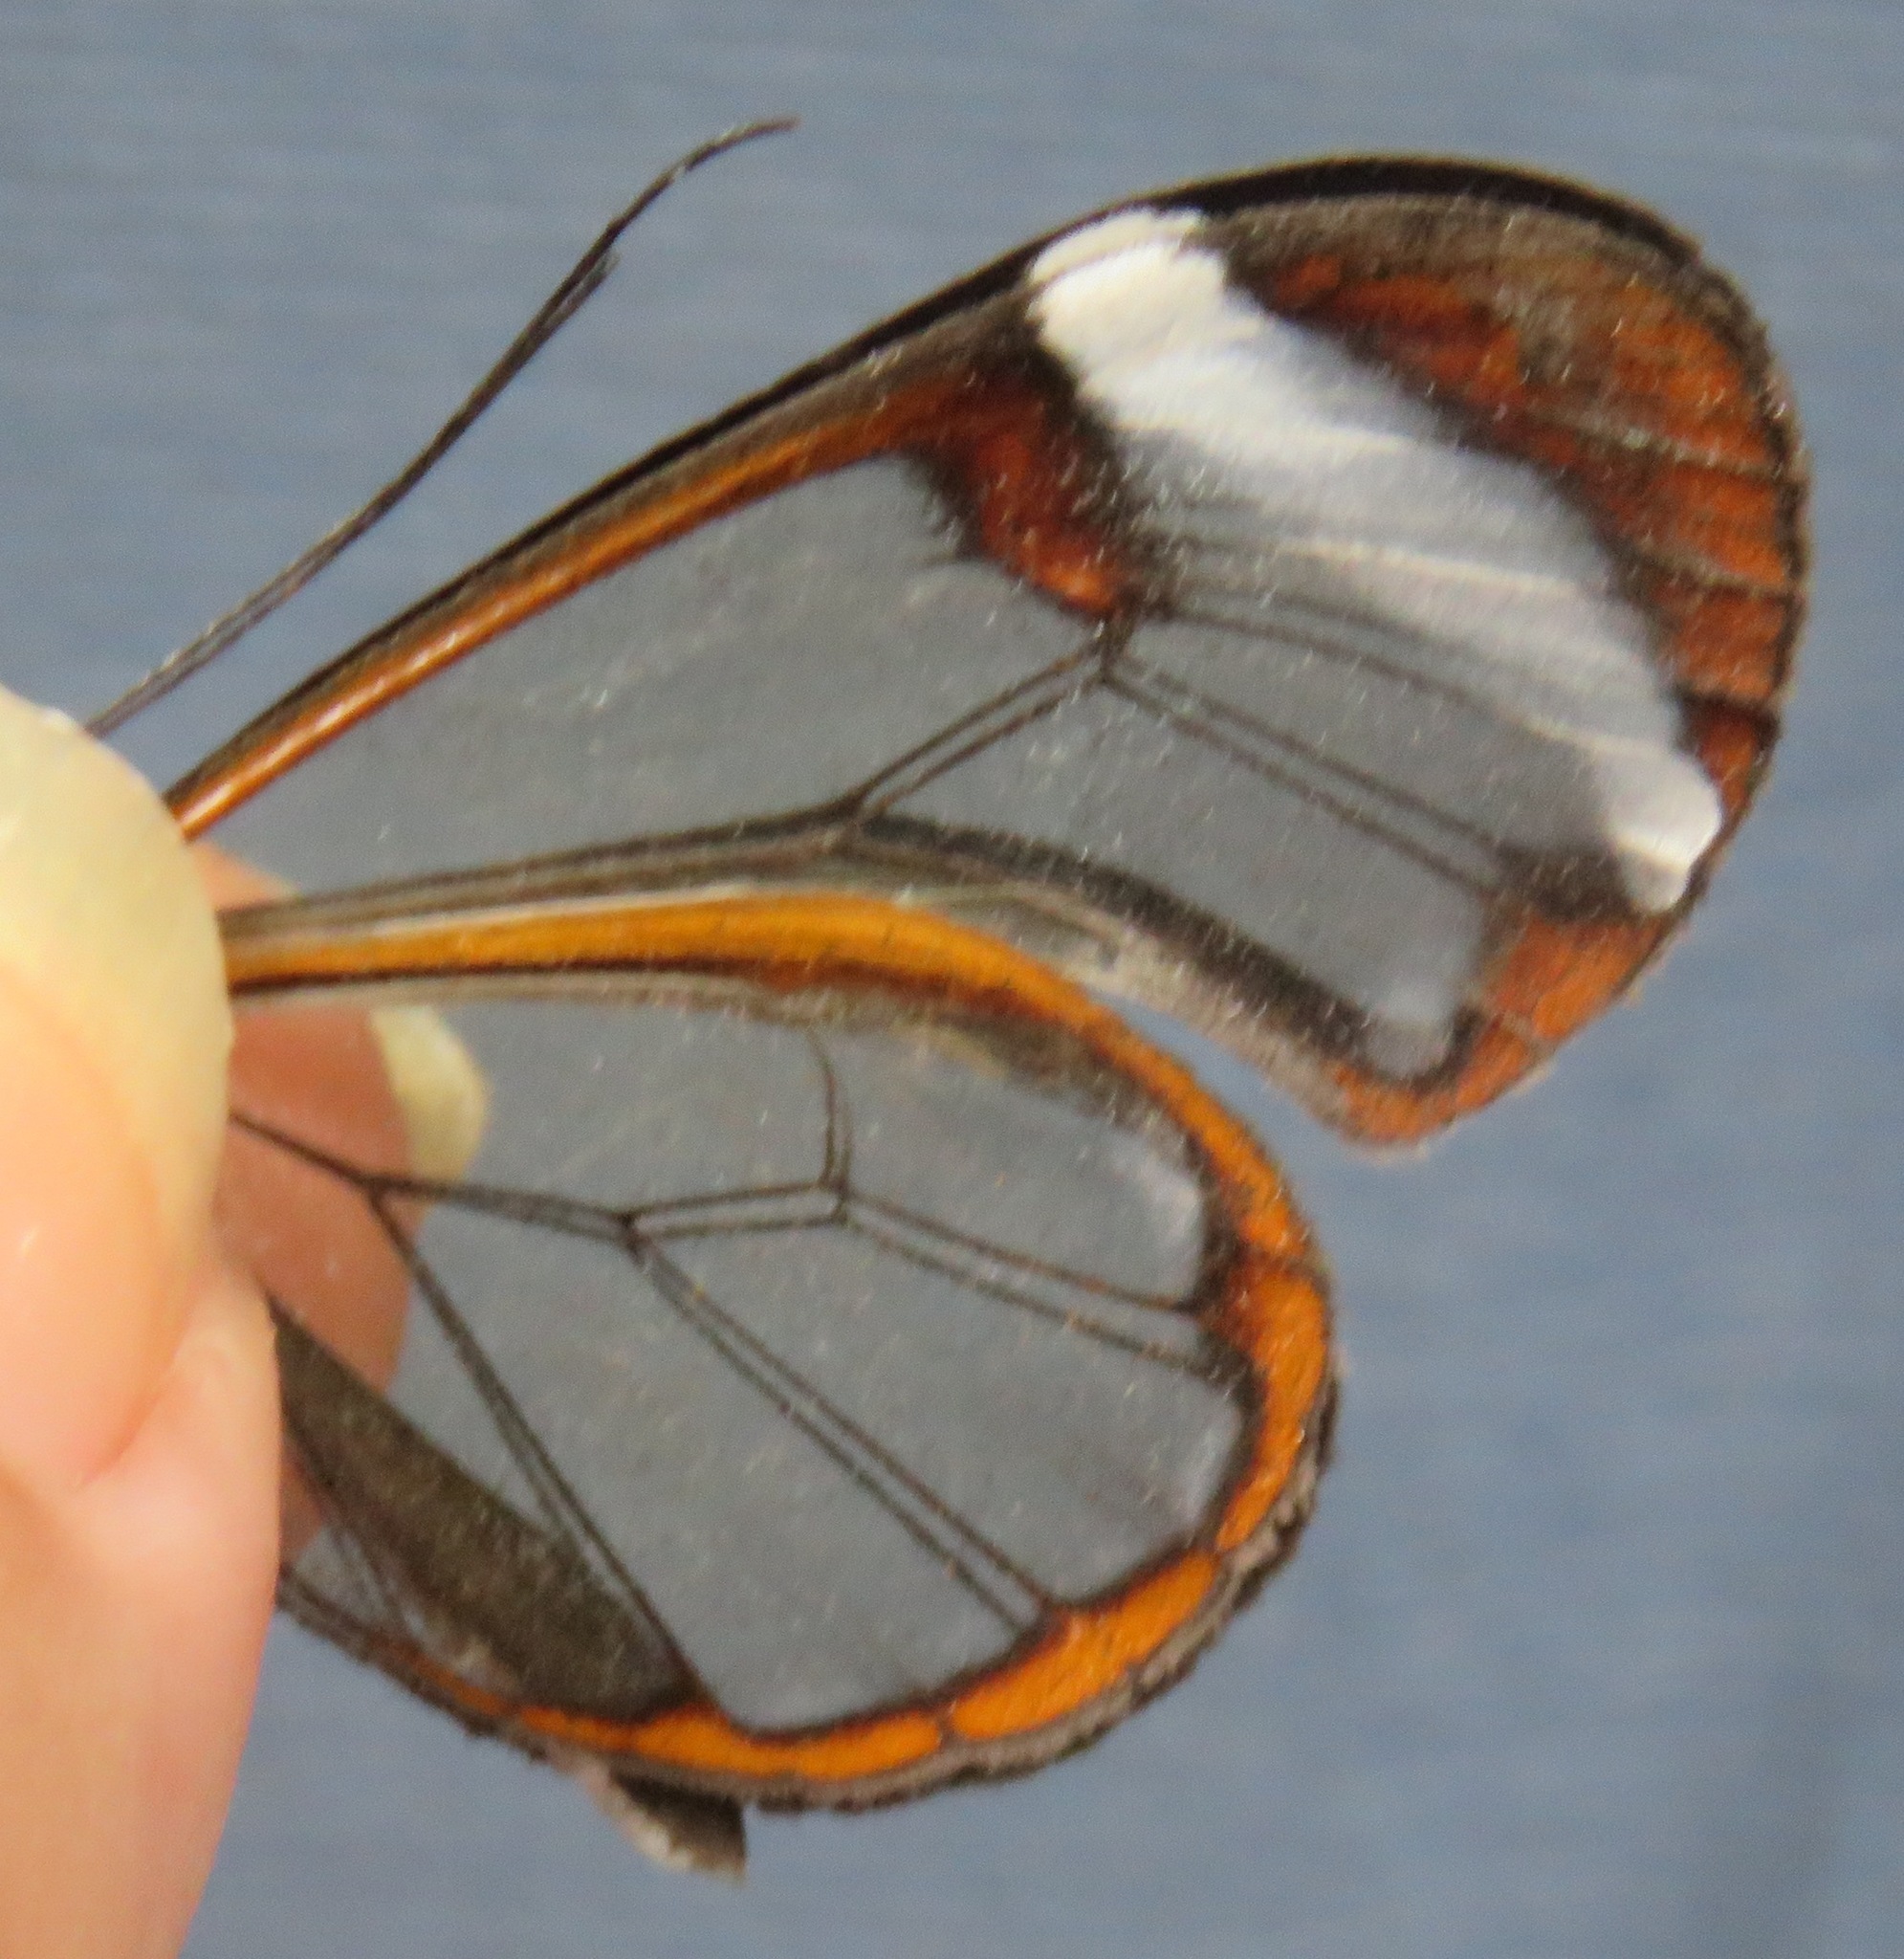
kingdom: Animalia
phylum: Arthropoda
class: Insecta
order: Lepidoptera
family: Nymphalidae
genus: Greta
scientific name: Greta morgane
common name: Thick-tipped greta
